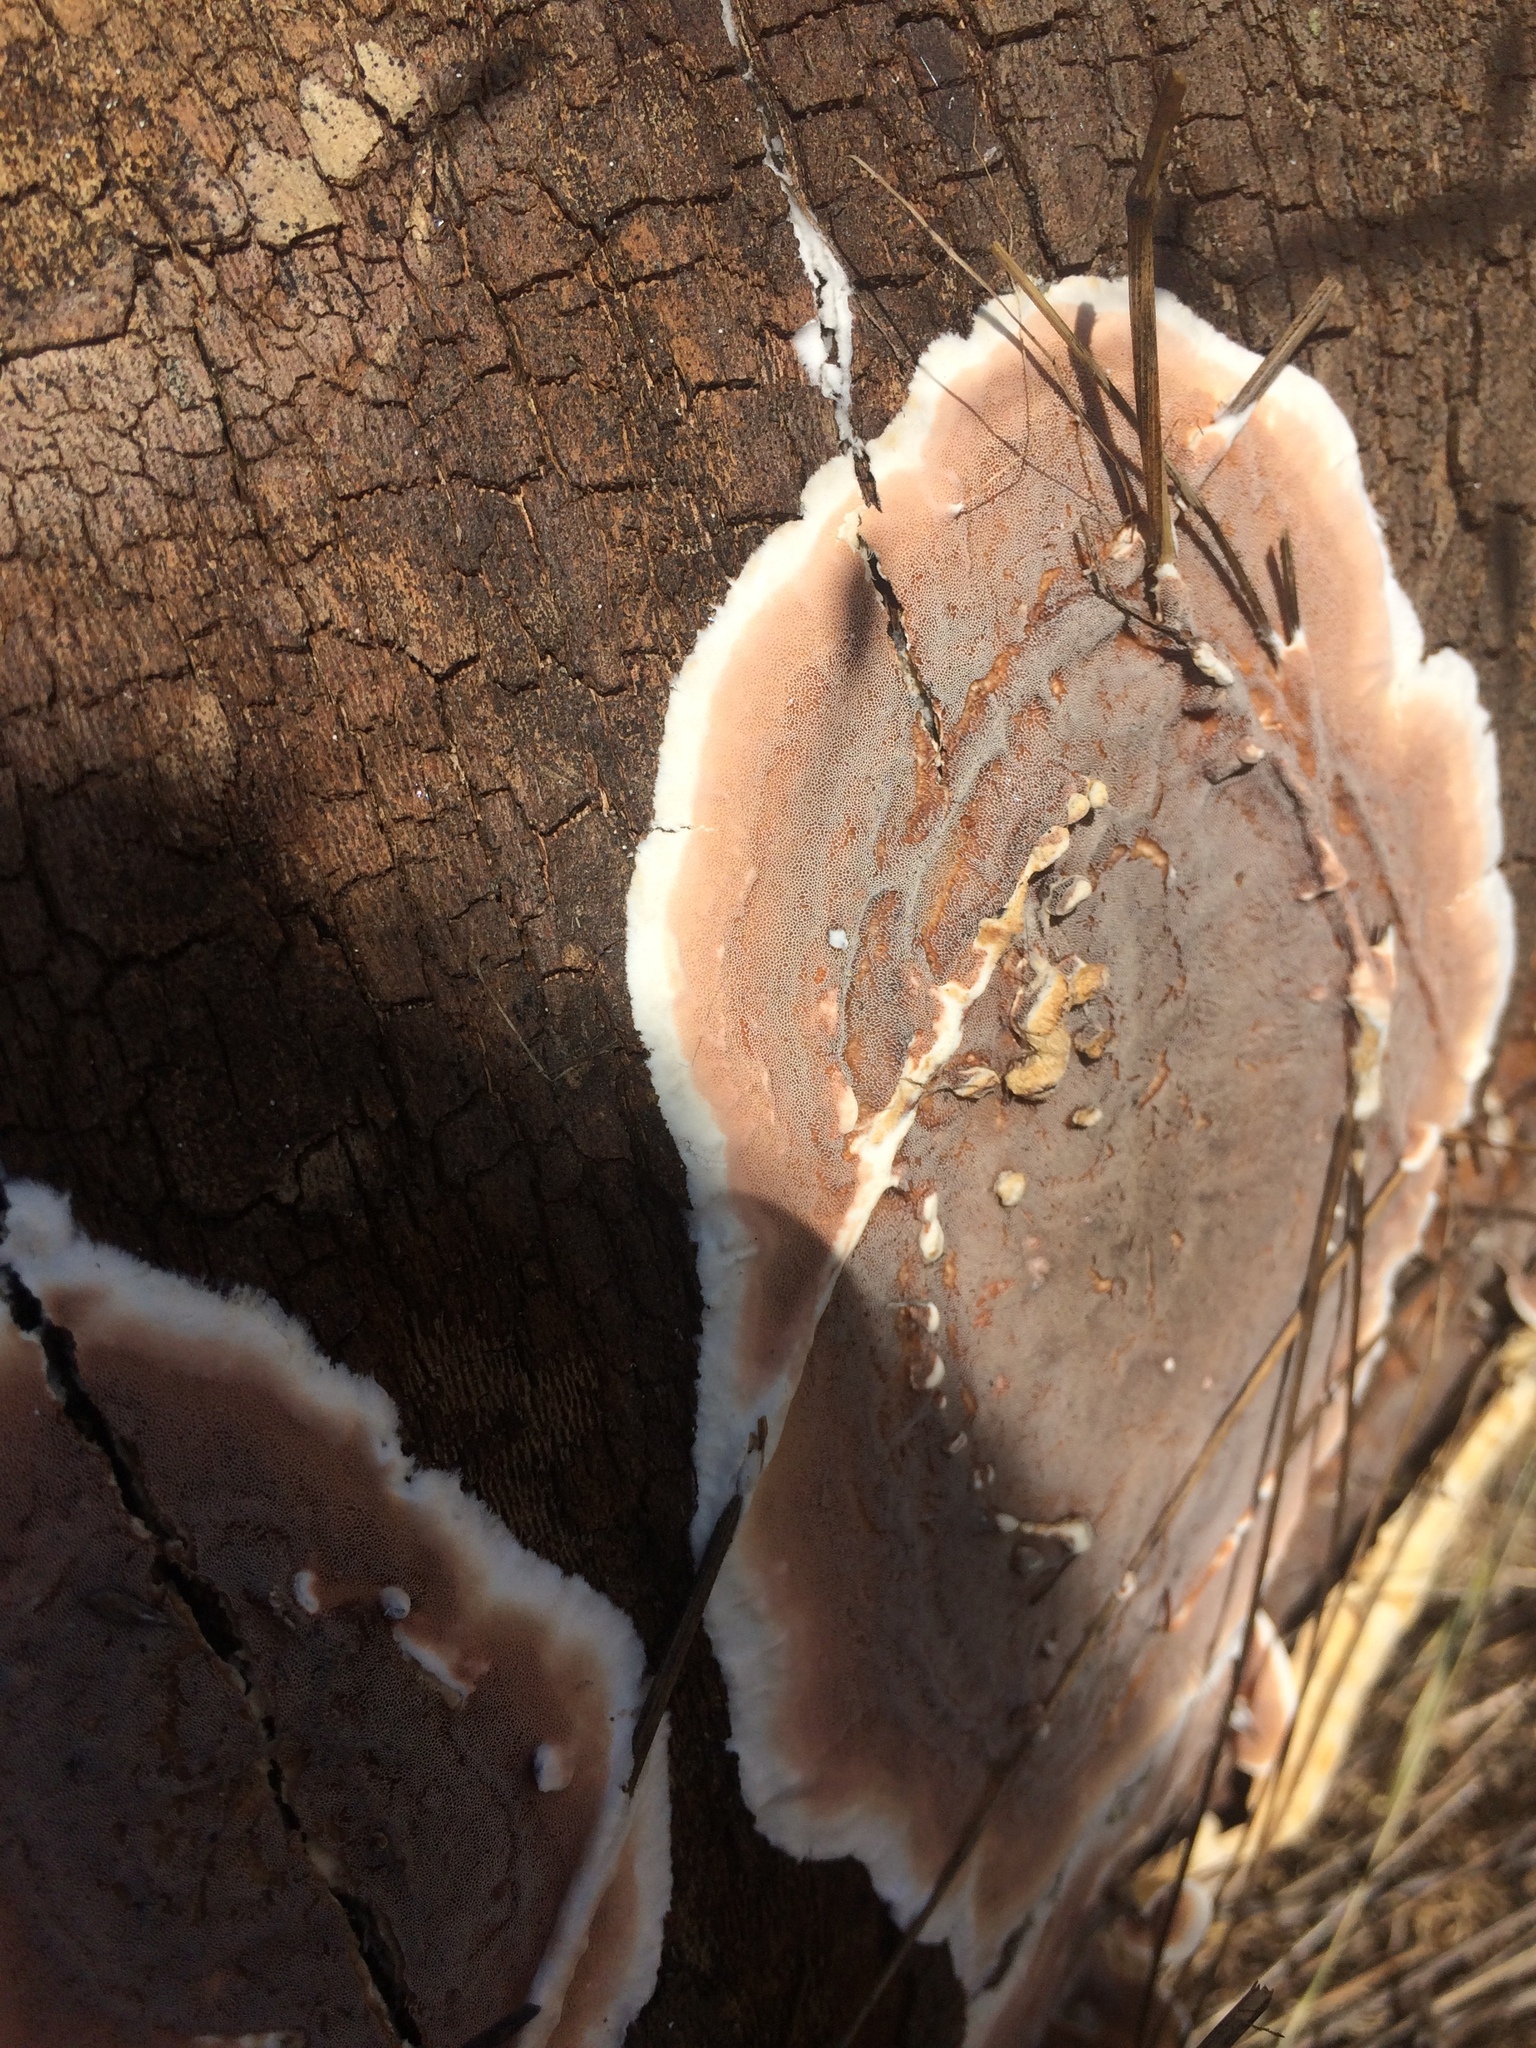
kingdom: Fungi
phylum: Basidiomycota
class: Agaricomycetes
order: Polyporales
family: Irpicaceae
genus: Vitreoporus
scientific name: Vitreoporus dichrous
